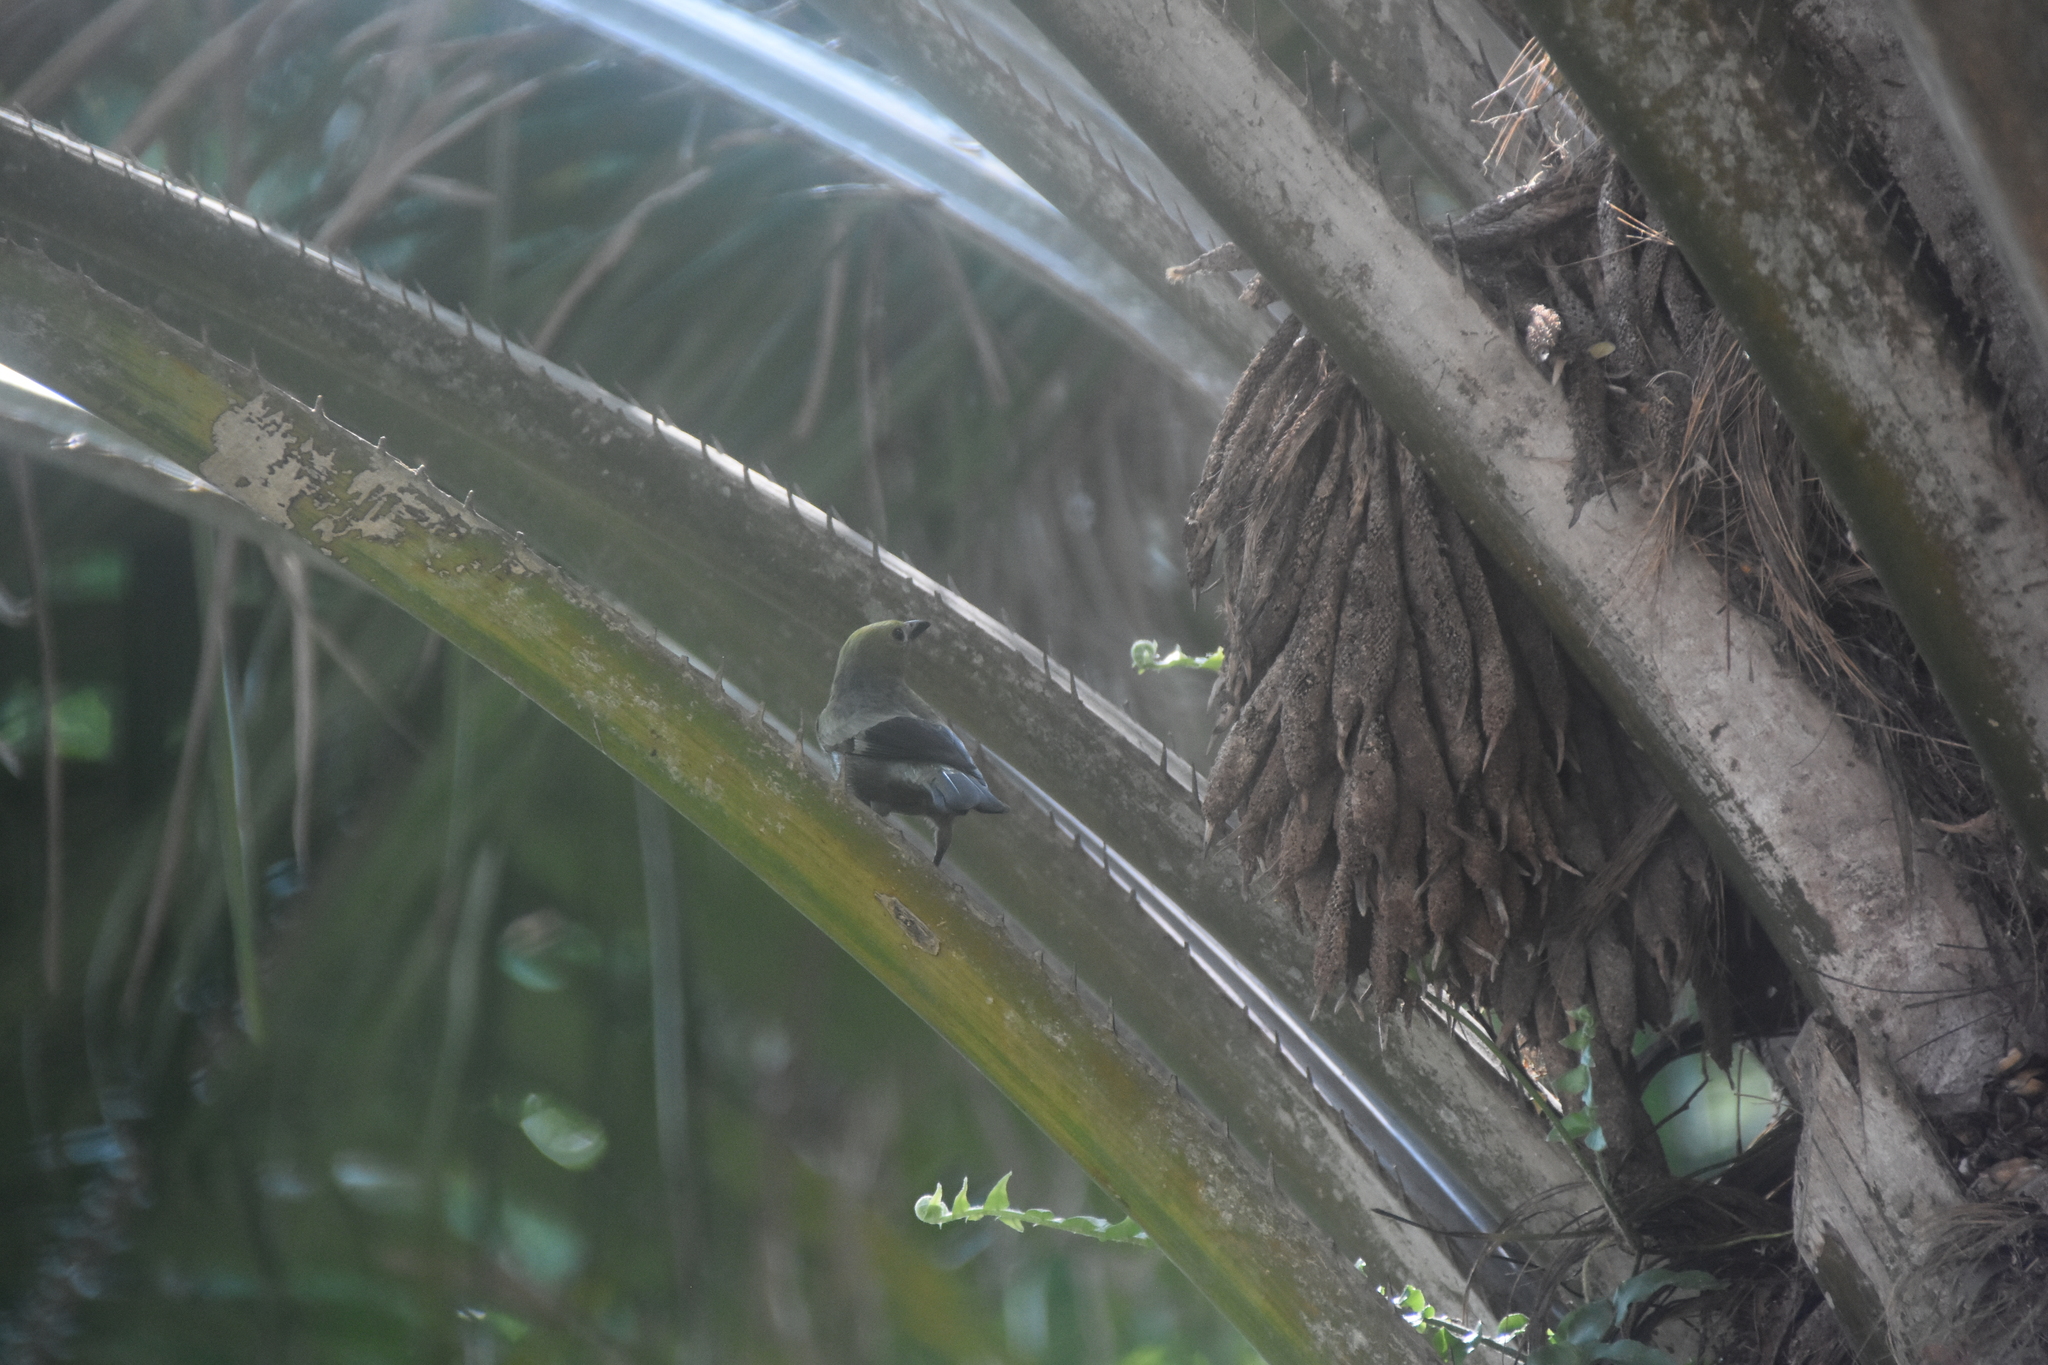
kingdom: Animalia
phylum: Chordata
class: Aves
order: Passeriformes
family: Thraupidae
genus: Thraupis
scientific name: Thraupis palmarum
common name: Palm tanager
